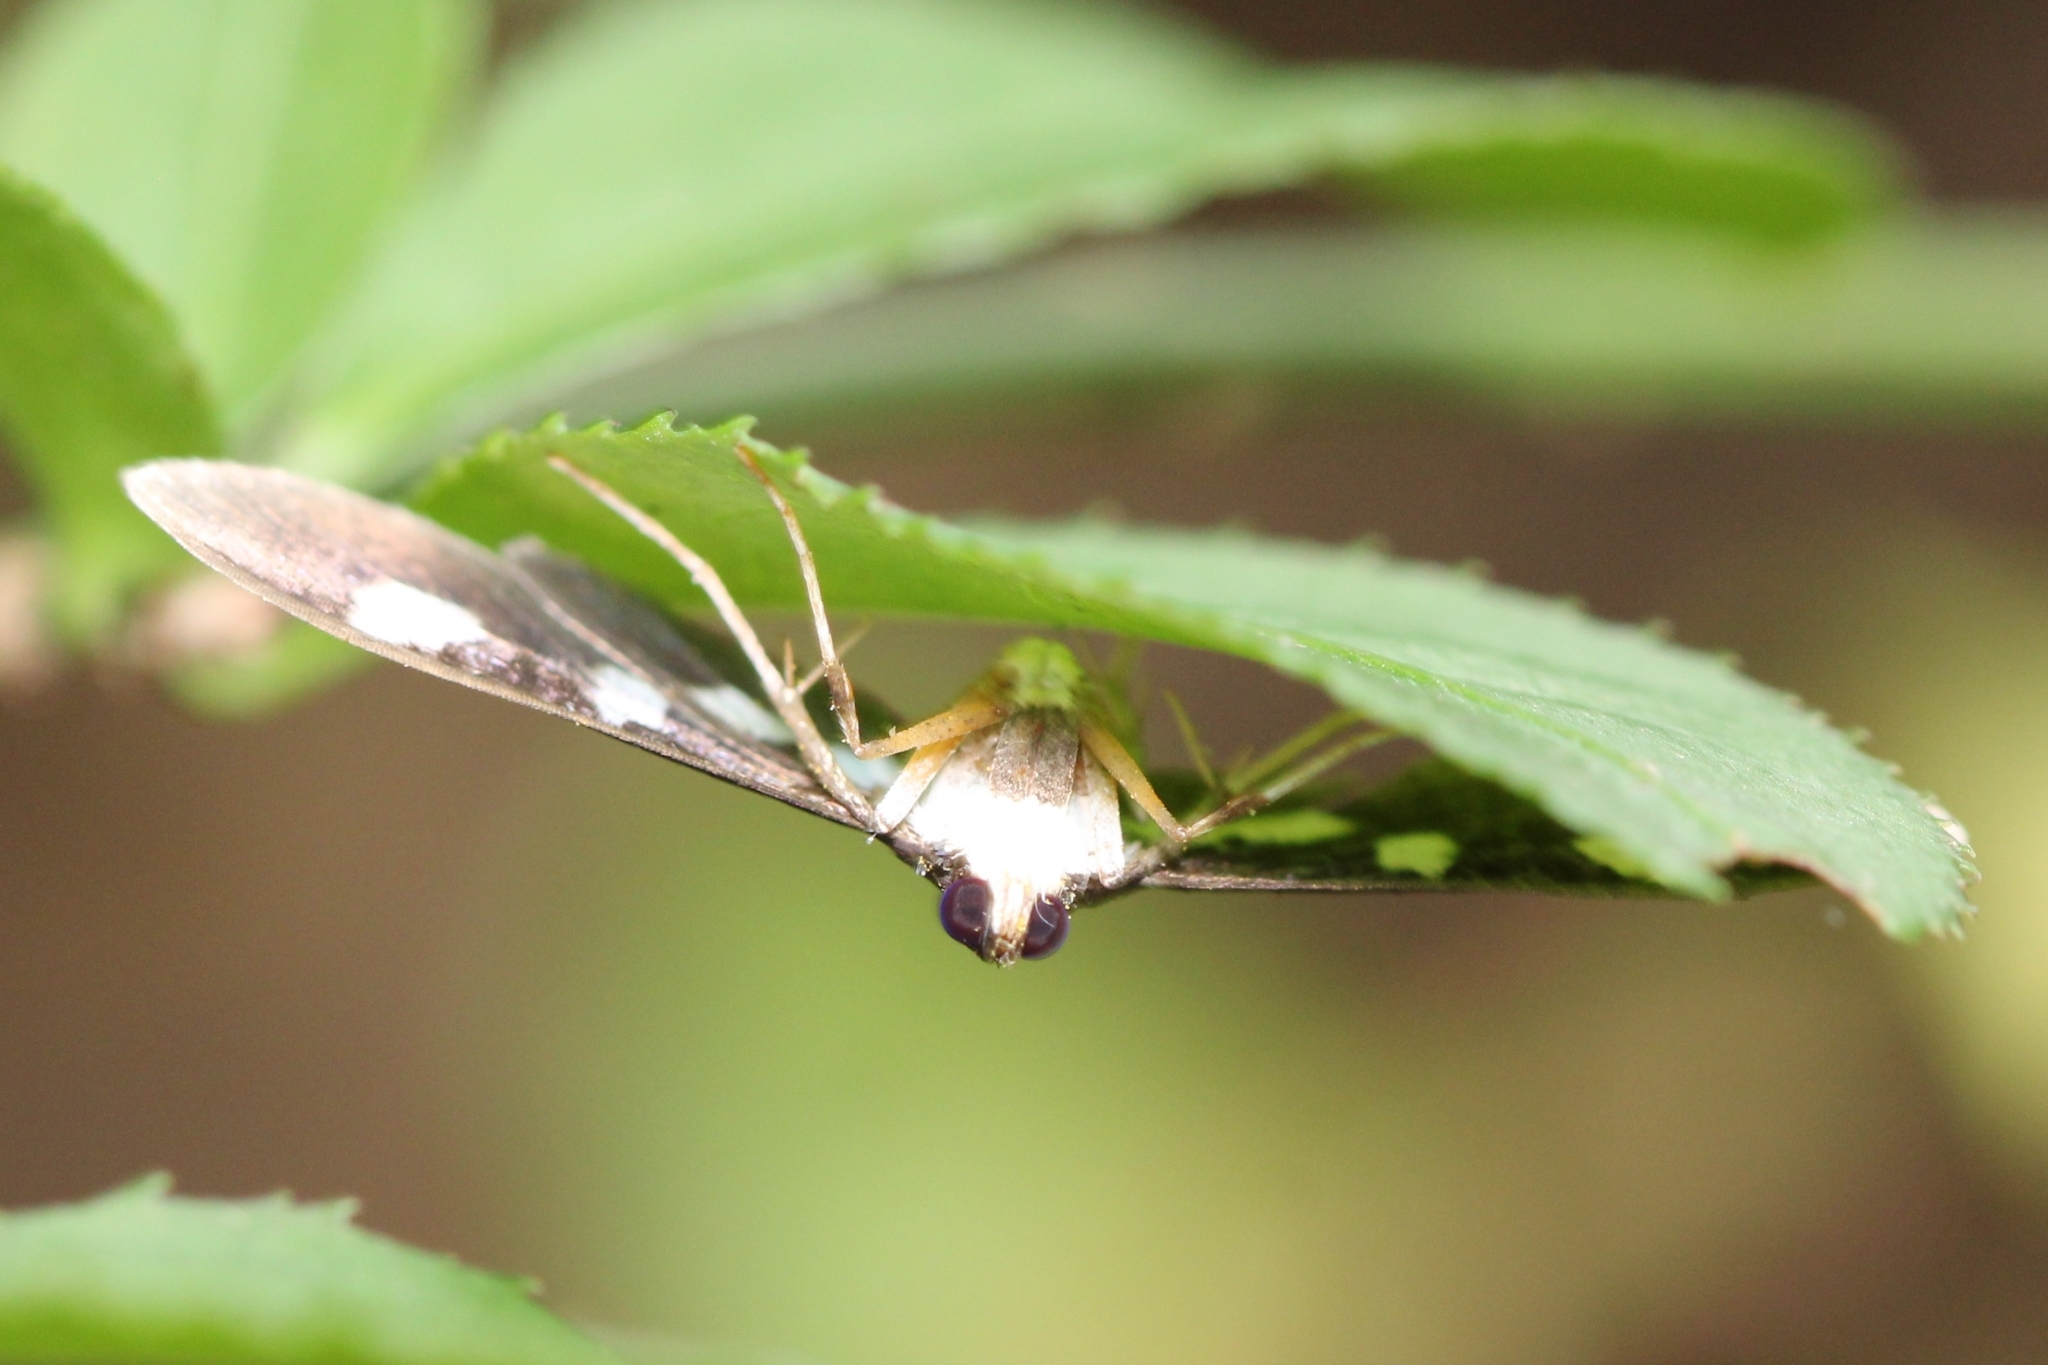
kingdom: Animalia
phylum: Arthropoda
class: Insecta
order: Lepidoptera
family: Crambidae
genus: Desmia
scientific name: Desmia
